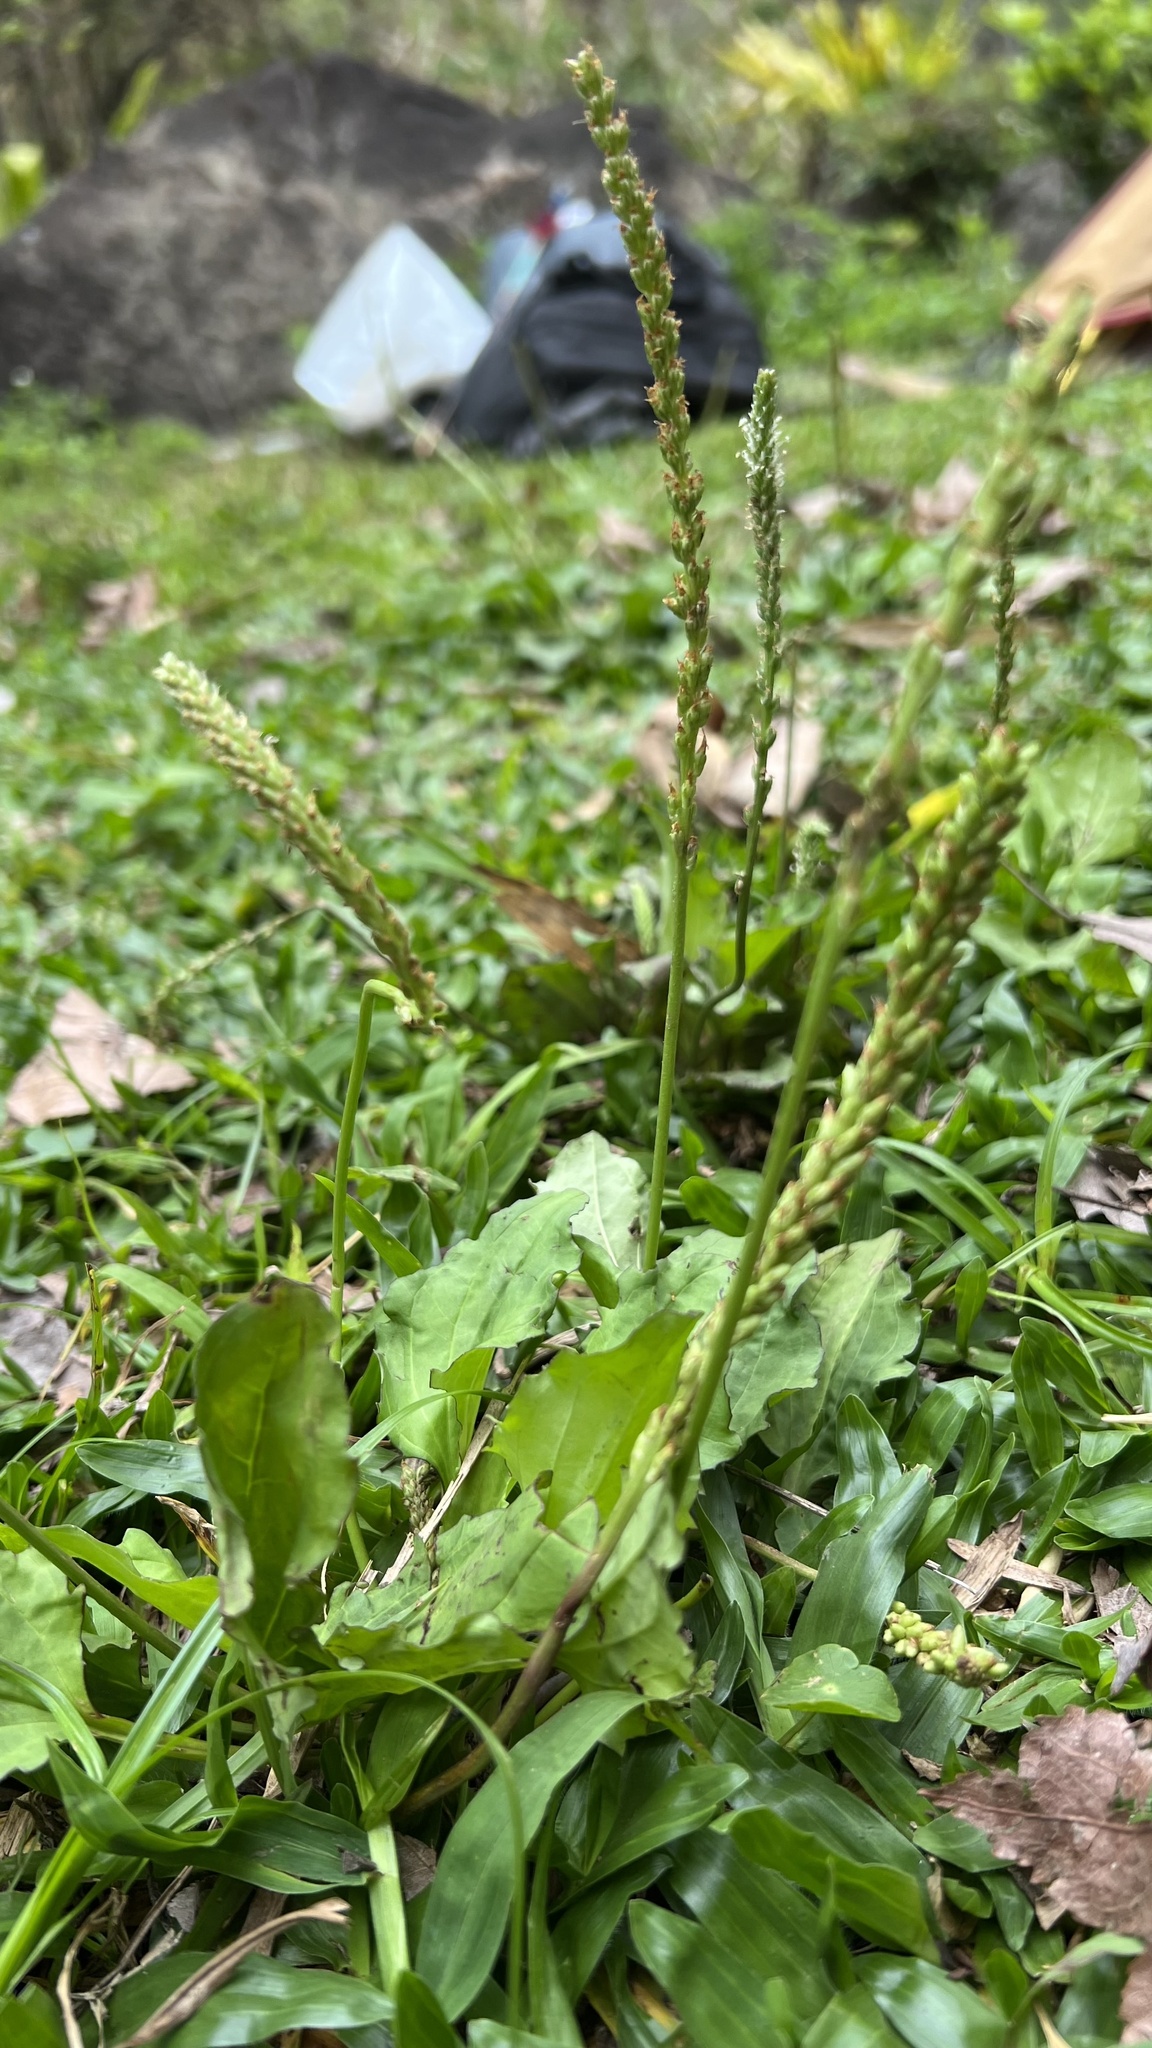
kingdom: Plantae
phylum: Tracheophyta
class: Magnoliopsida
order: Lamiales
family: Plantaginaceae
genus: Plantago
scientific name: Plantago asiatica
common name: Psyllium
